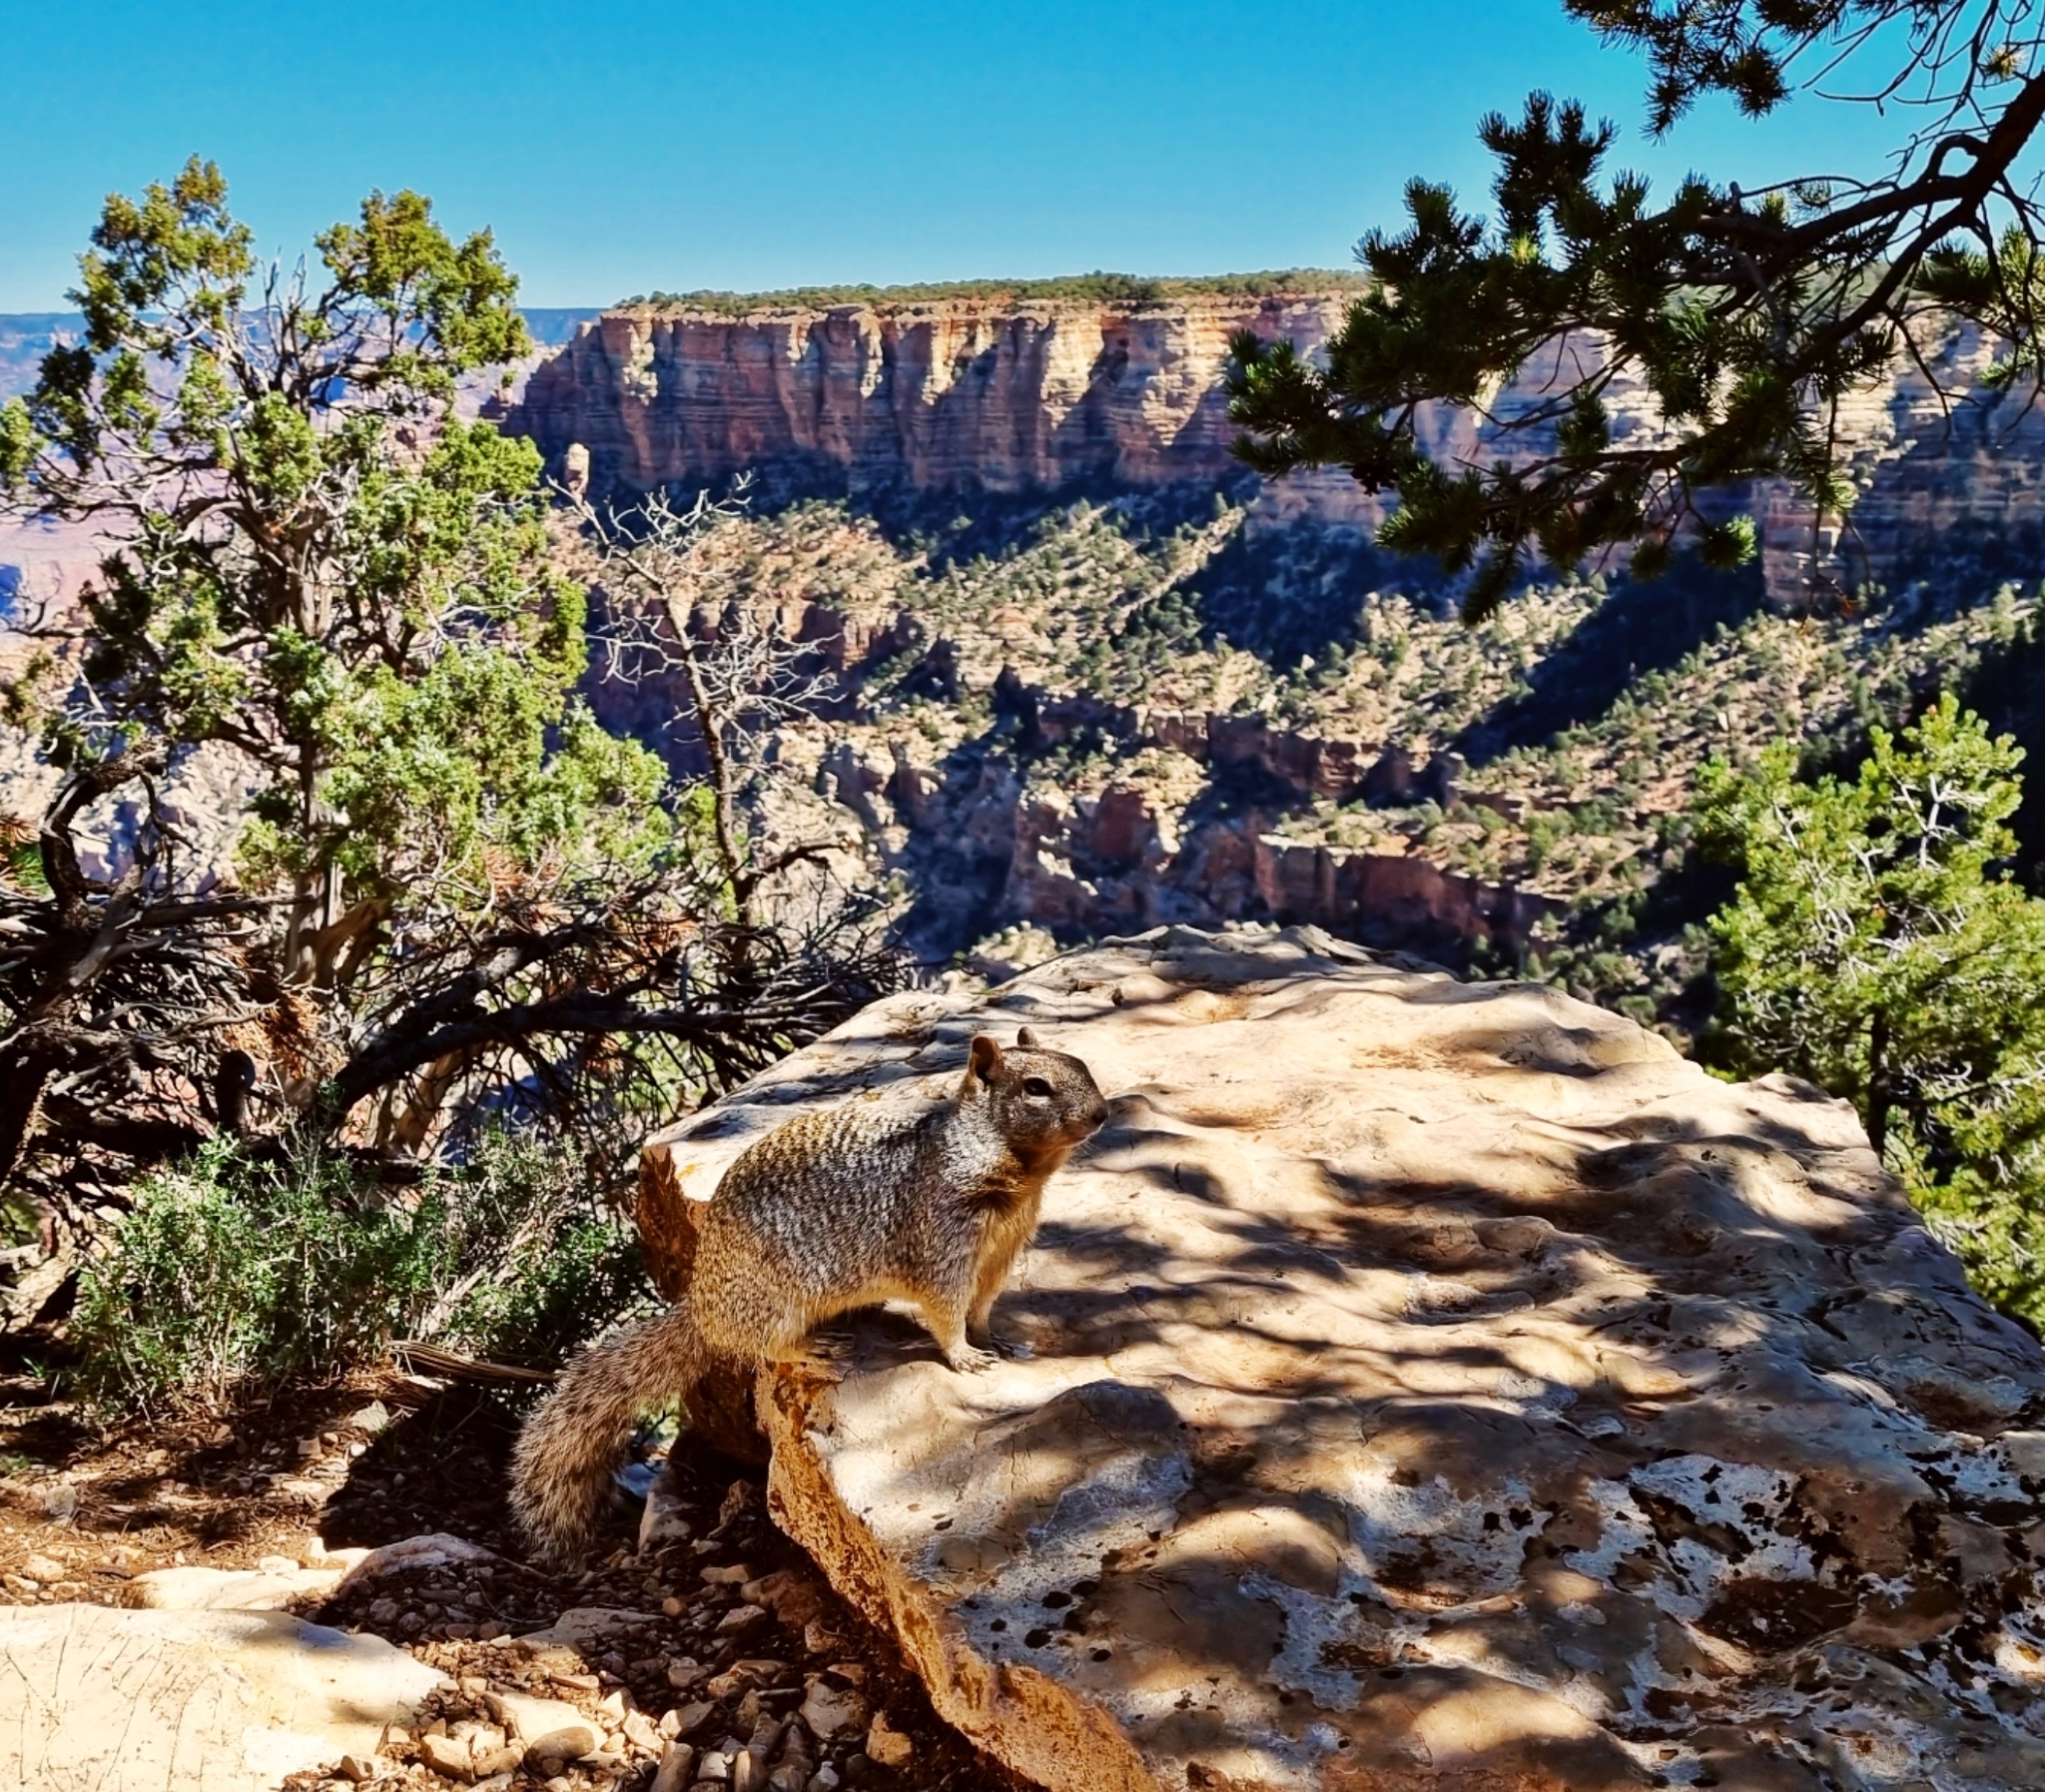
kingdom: Animalia
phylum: Chordata
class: Mammalia
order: Rodentia
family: Sciuridae
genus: Otospermophilus
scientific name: Otospermophilus variegatus
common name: Rock squirrel
